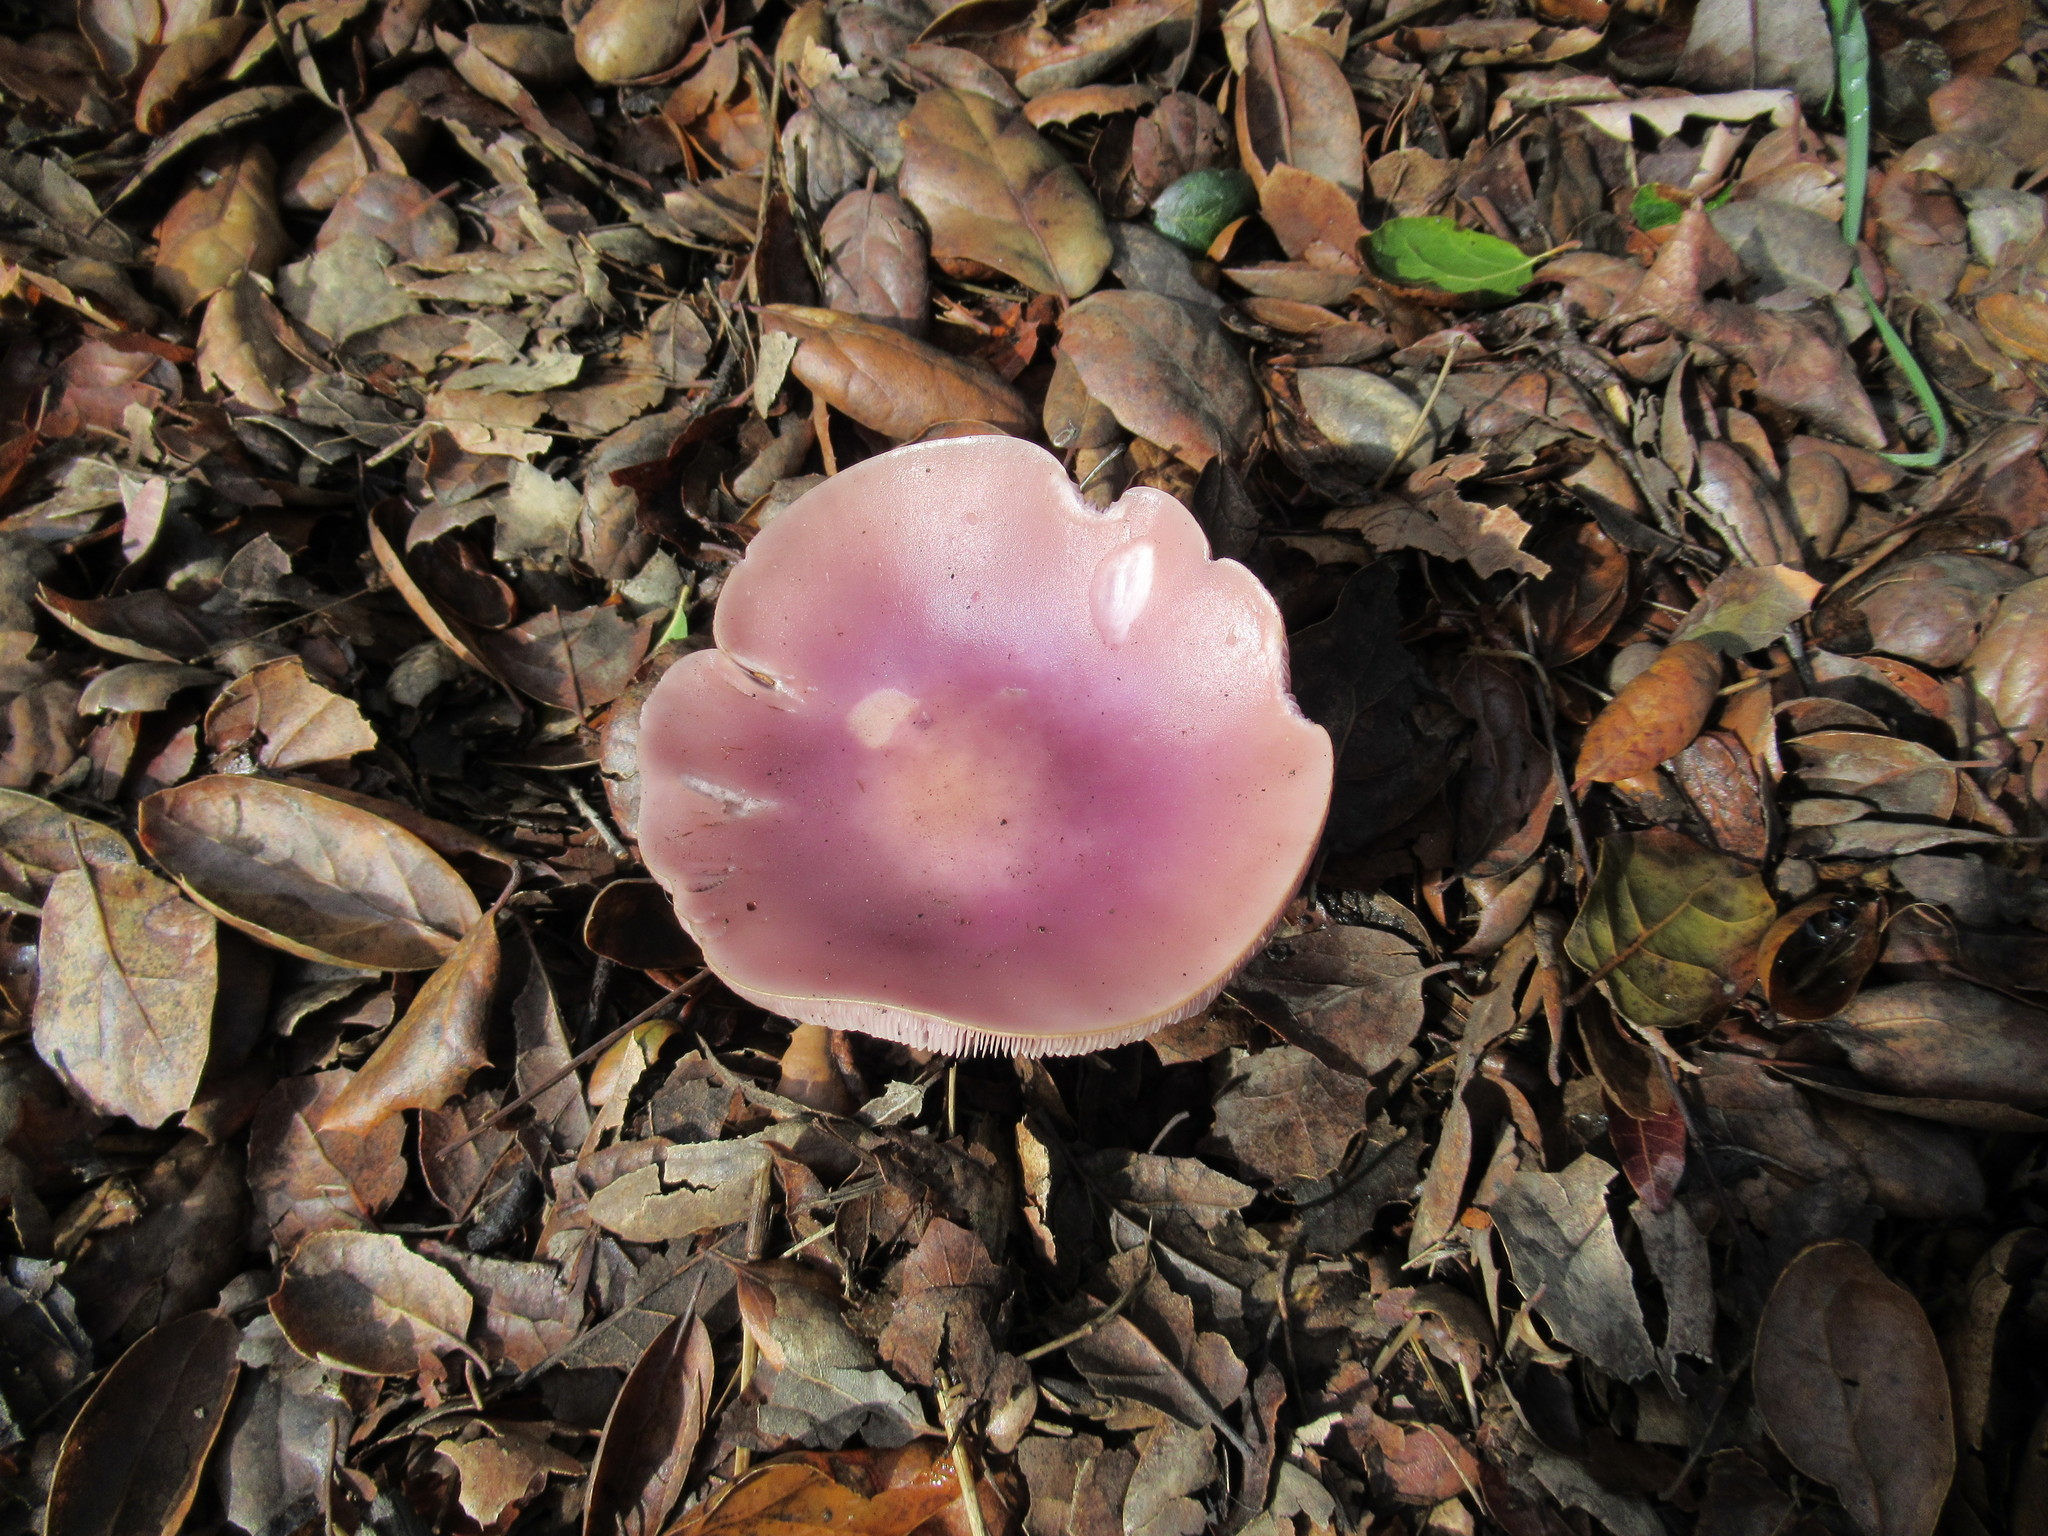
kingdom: Fungi
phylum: Basidiomycota
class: Agaricomycetes
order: Agaricales
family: Tricholomataceae
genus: Collybia
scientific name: Collybia
